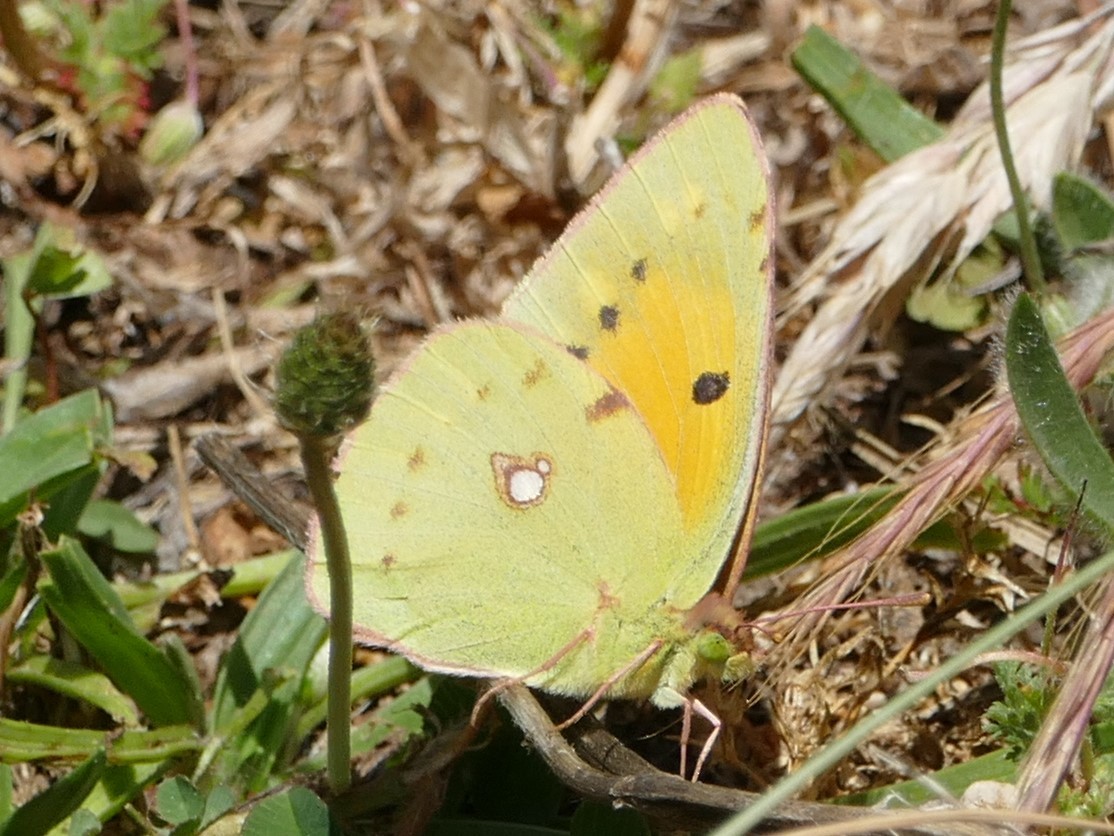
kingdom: Animalia
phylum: Arthropoda
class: Insecta
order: Lepidoptera
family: Pieridae
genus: Colias
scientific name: Colias croceus
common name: Clouded yellow
